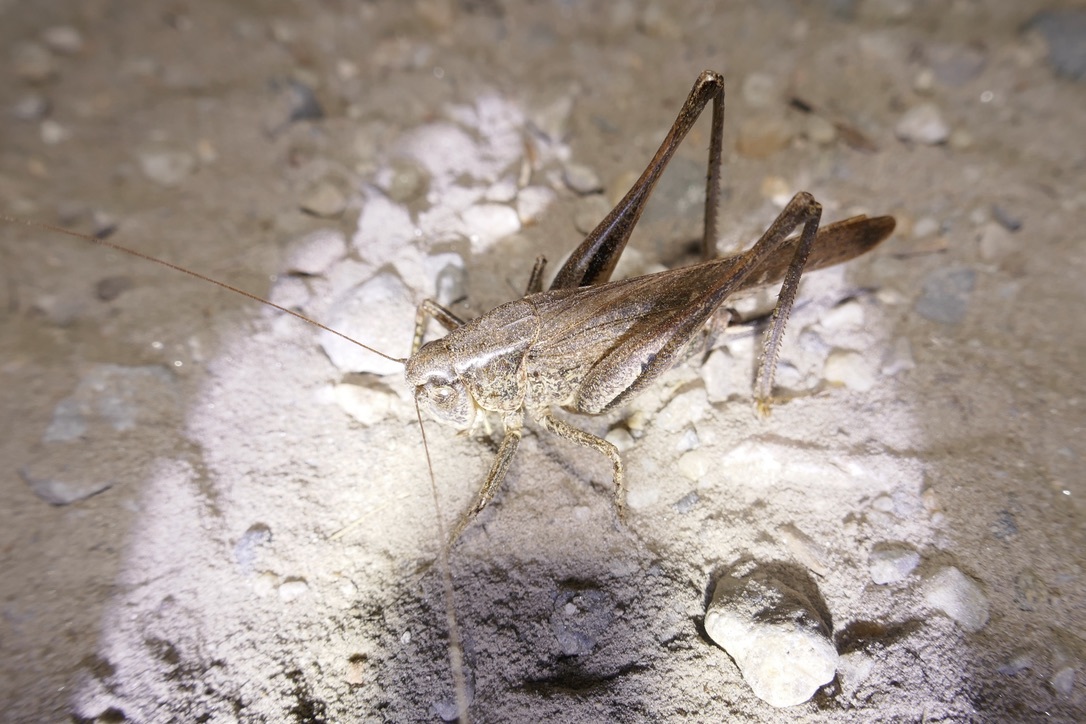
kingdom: Animalia
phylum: Arthropoda
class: Insecta
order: Orthoptera
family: Tettigoniidae
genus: Platycleis
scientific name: Platycleis grisea
